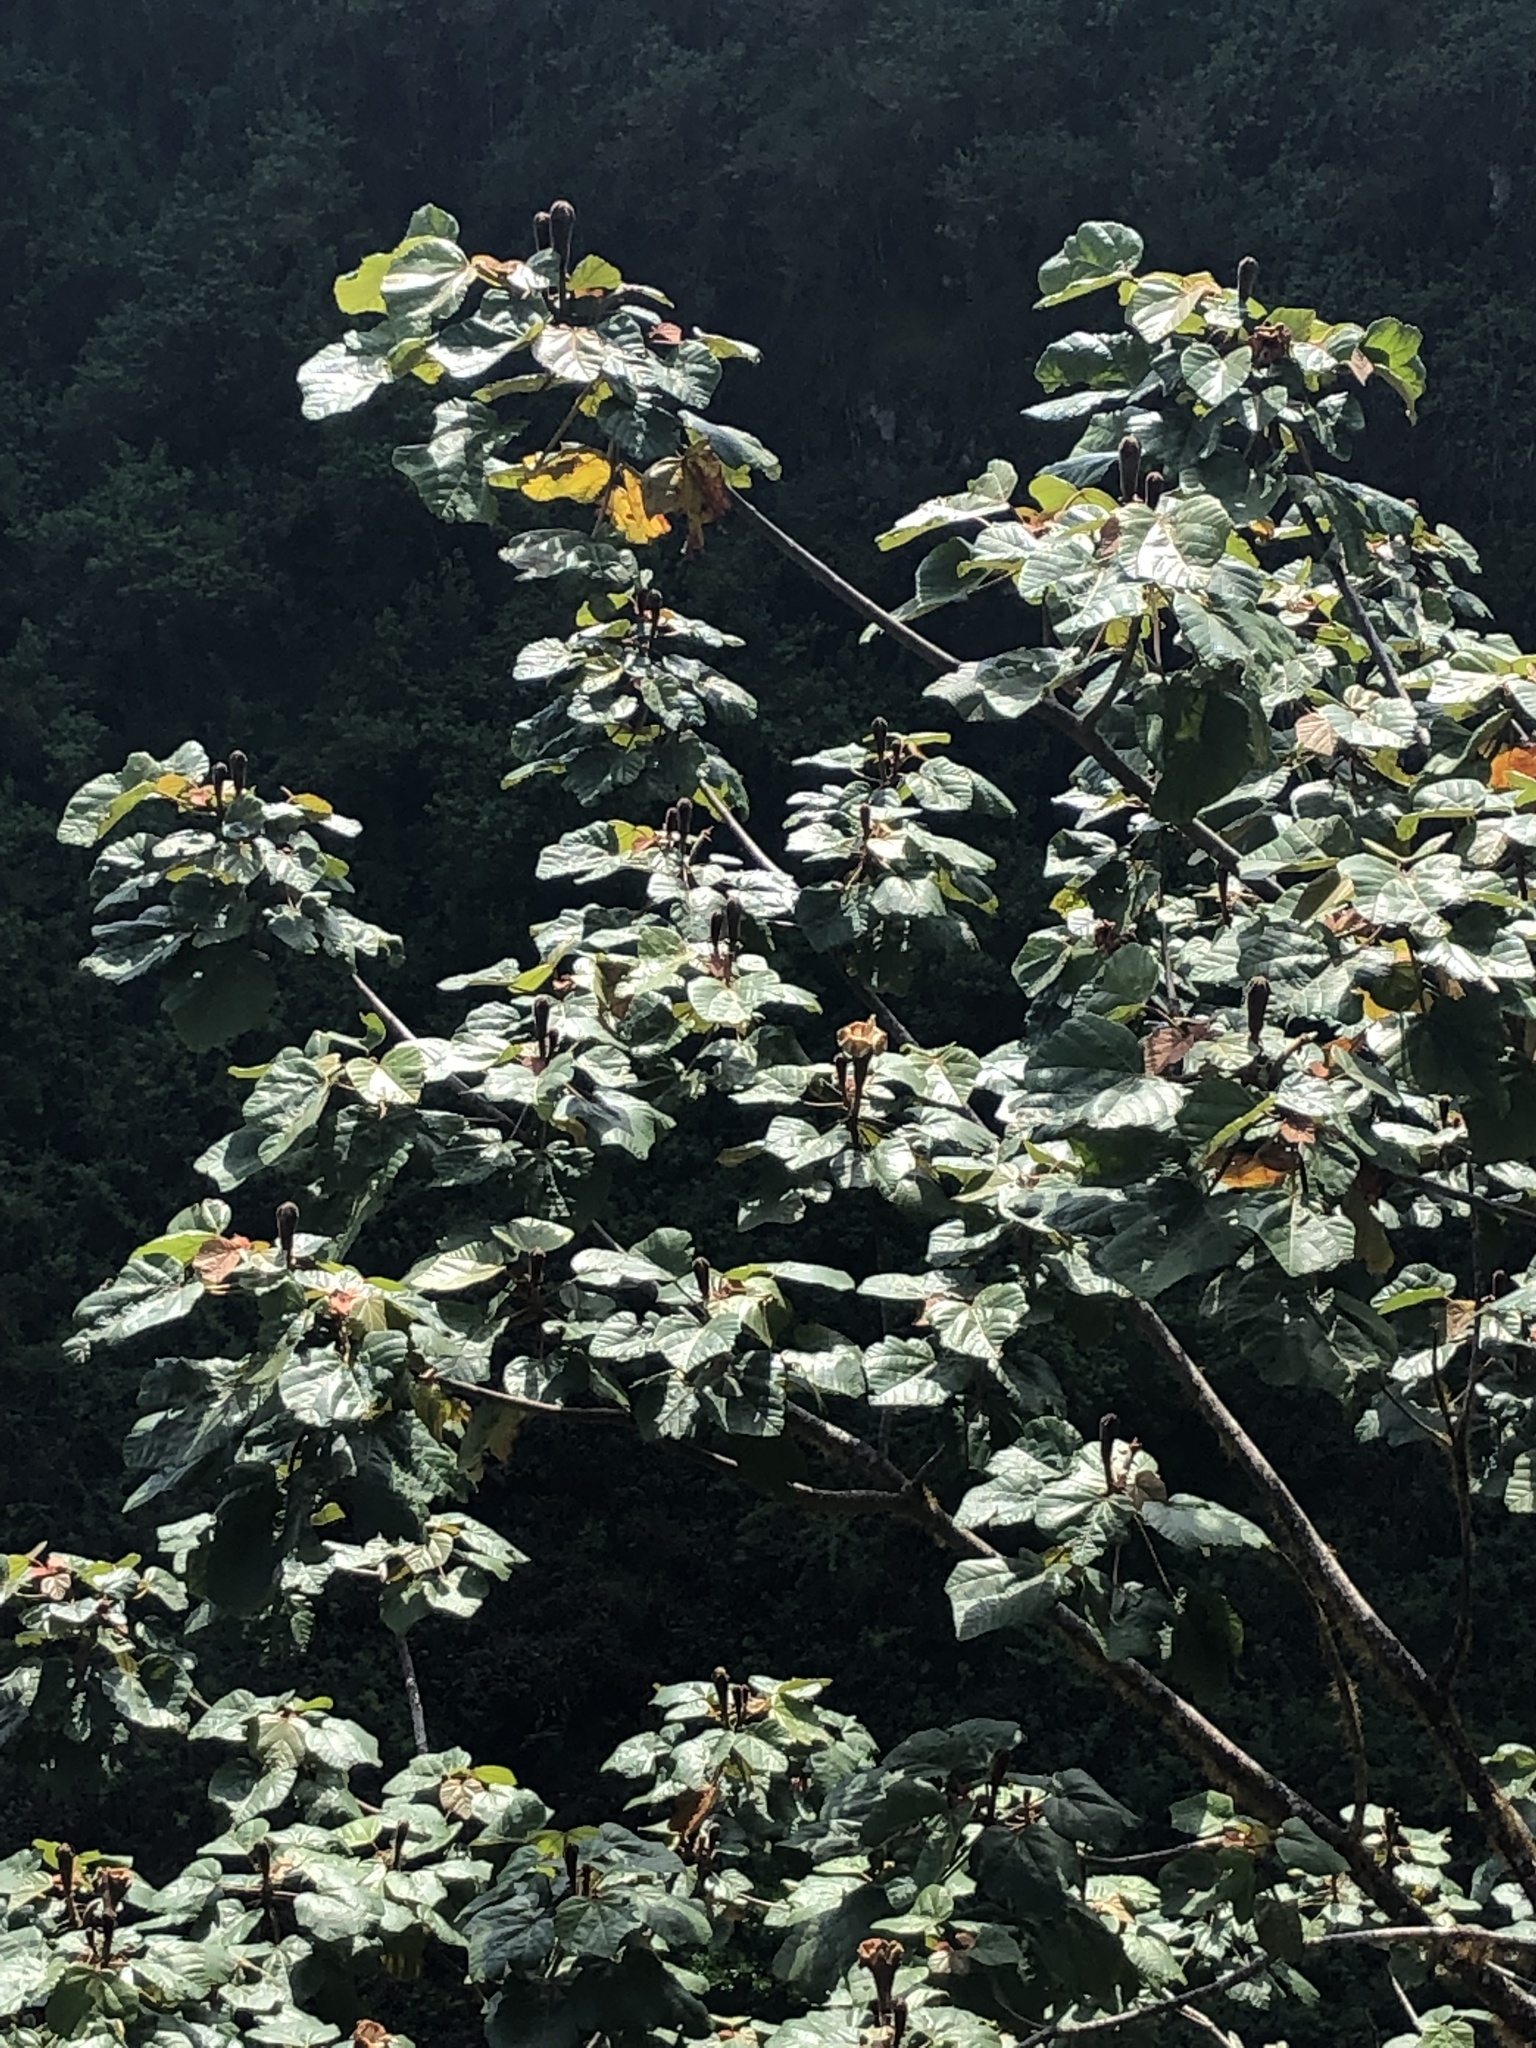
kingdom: Plantae
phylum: Tracheophyta
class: Magnoliopsida
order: Malvales
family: Malvaceae
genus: Ochroma
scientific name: Ochroma pyramidale
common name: Balsa
